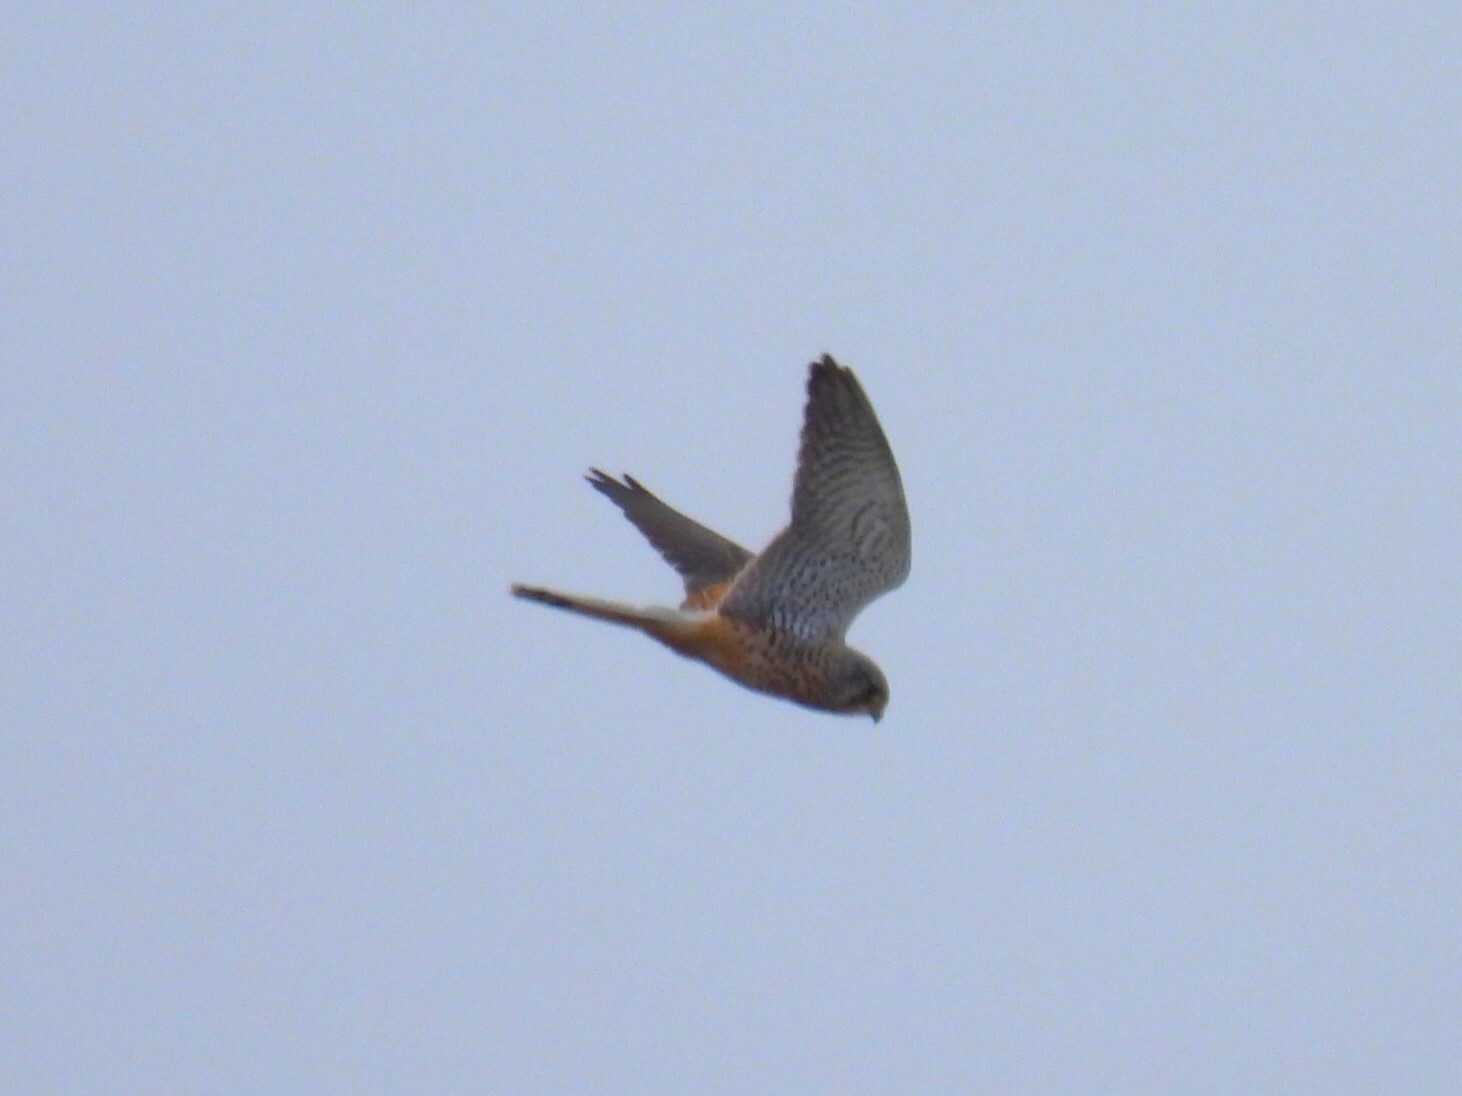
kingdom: Animalia
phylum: Chordata
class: Aves
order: Falconiformes
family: Falconidae
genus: Falco
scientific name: Falco tinnunculus
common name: Common kestrel
